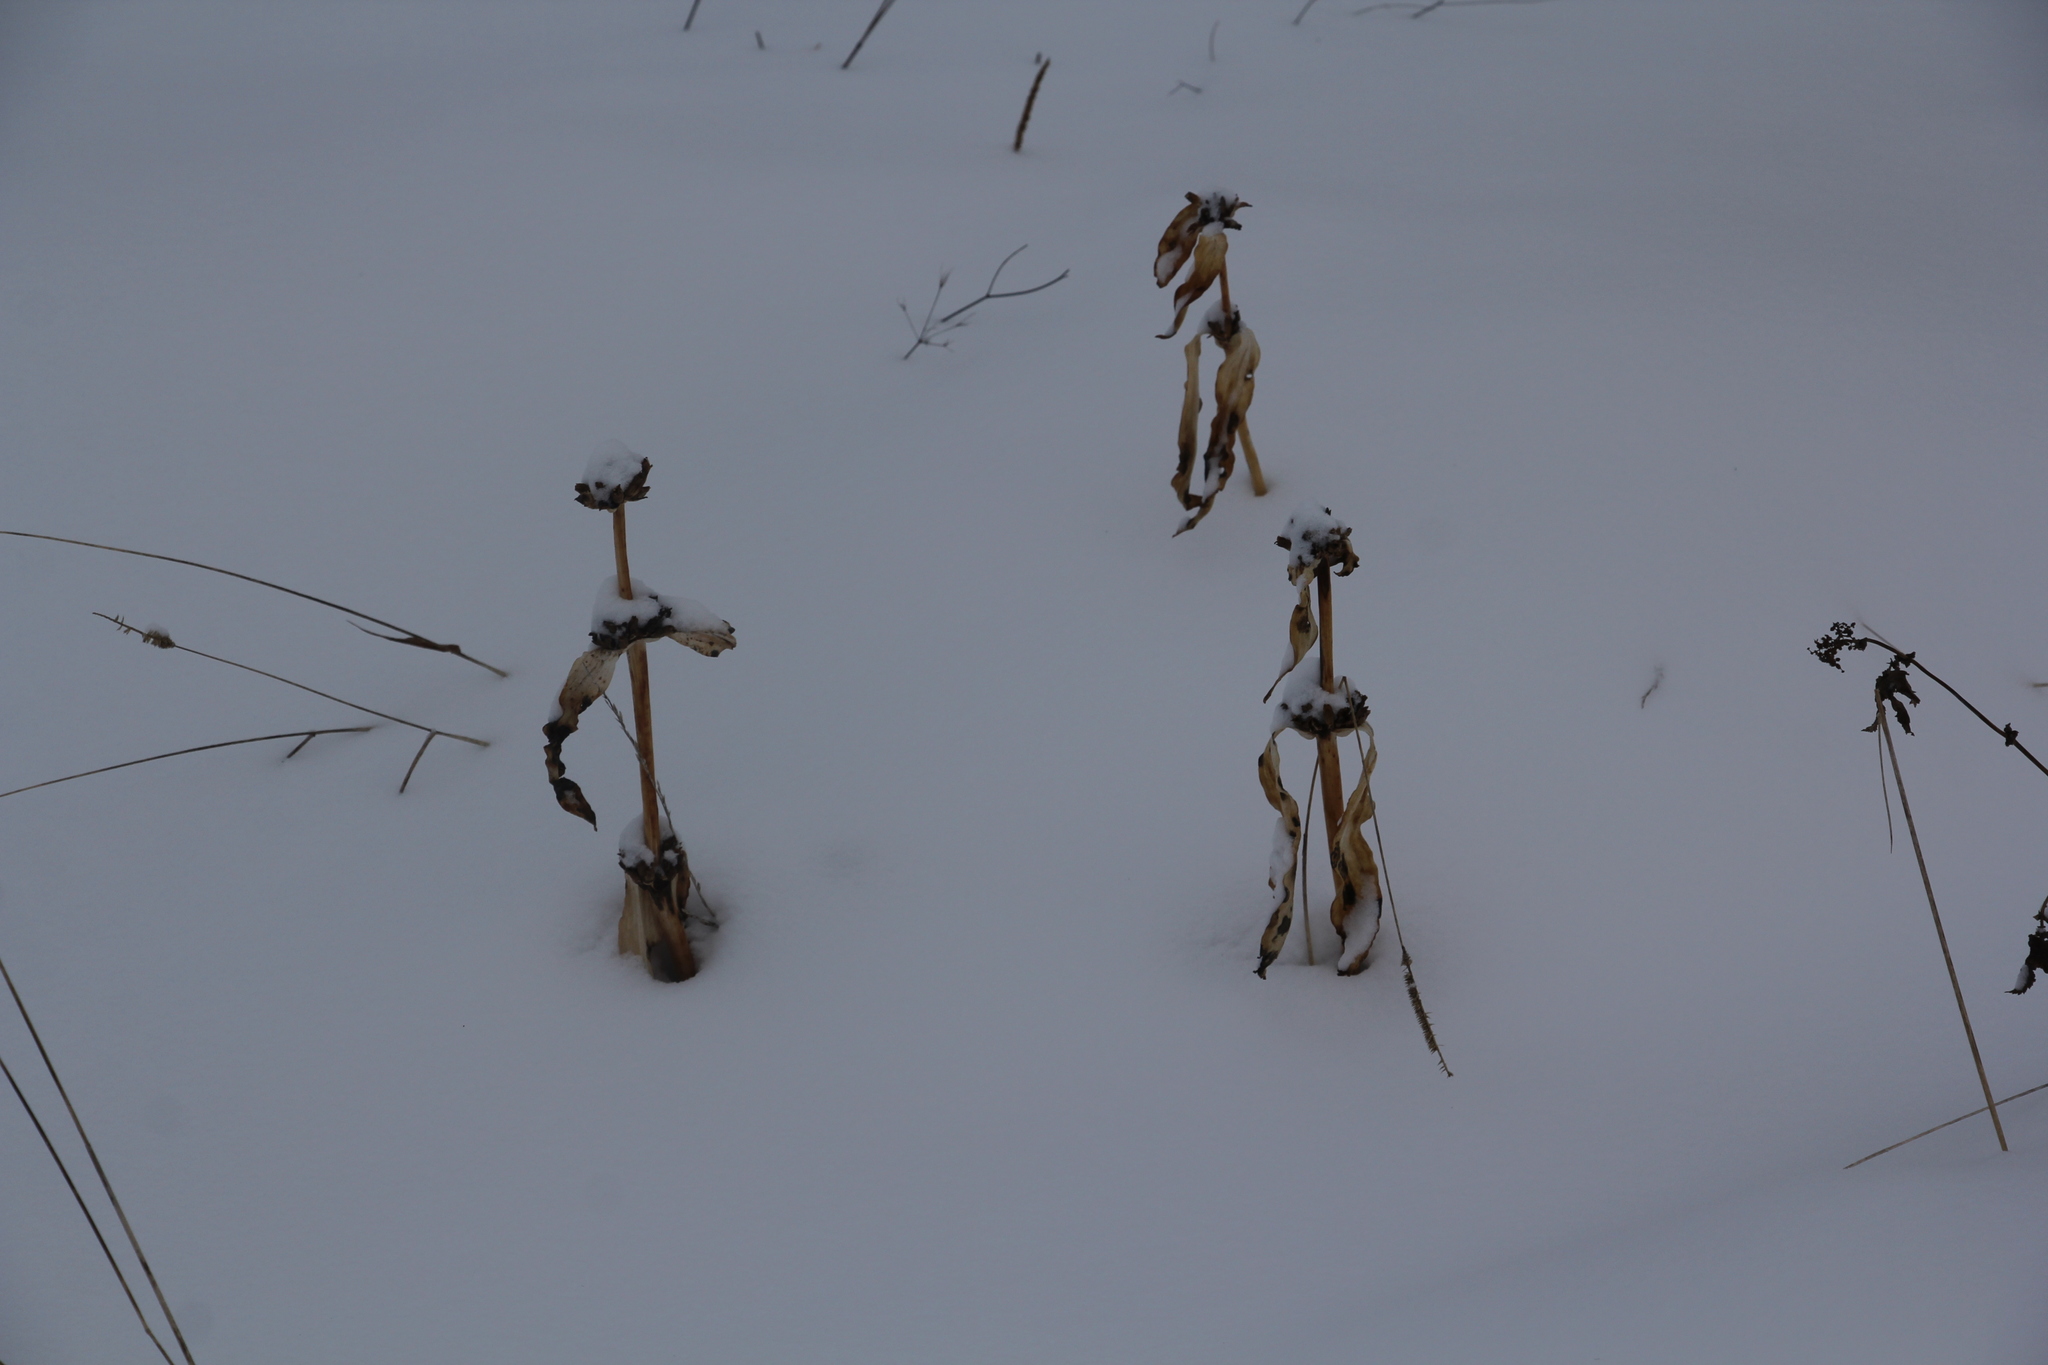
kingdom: Plantae
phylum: Tracheophyta
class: Magnoliopsida
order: Gentianales
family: Gentianaceae
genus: Gentiana
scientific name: Gentiana macrophylla
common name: Large-leaf gentian
